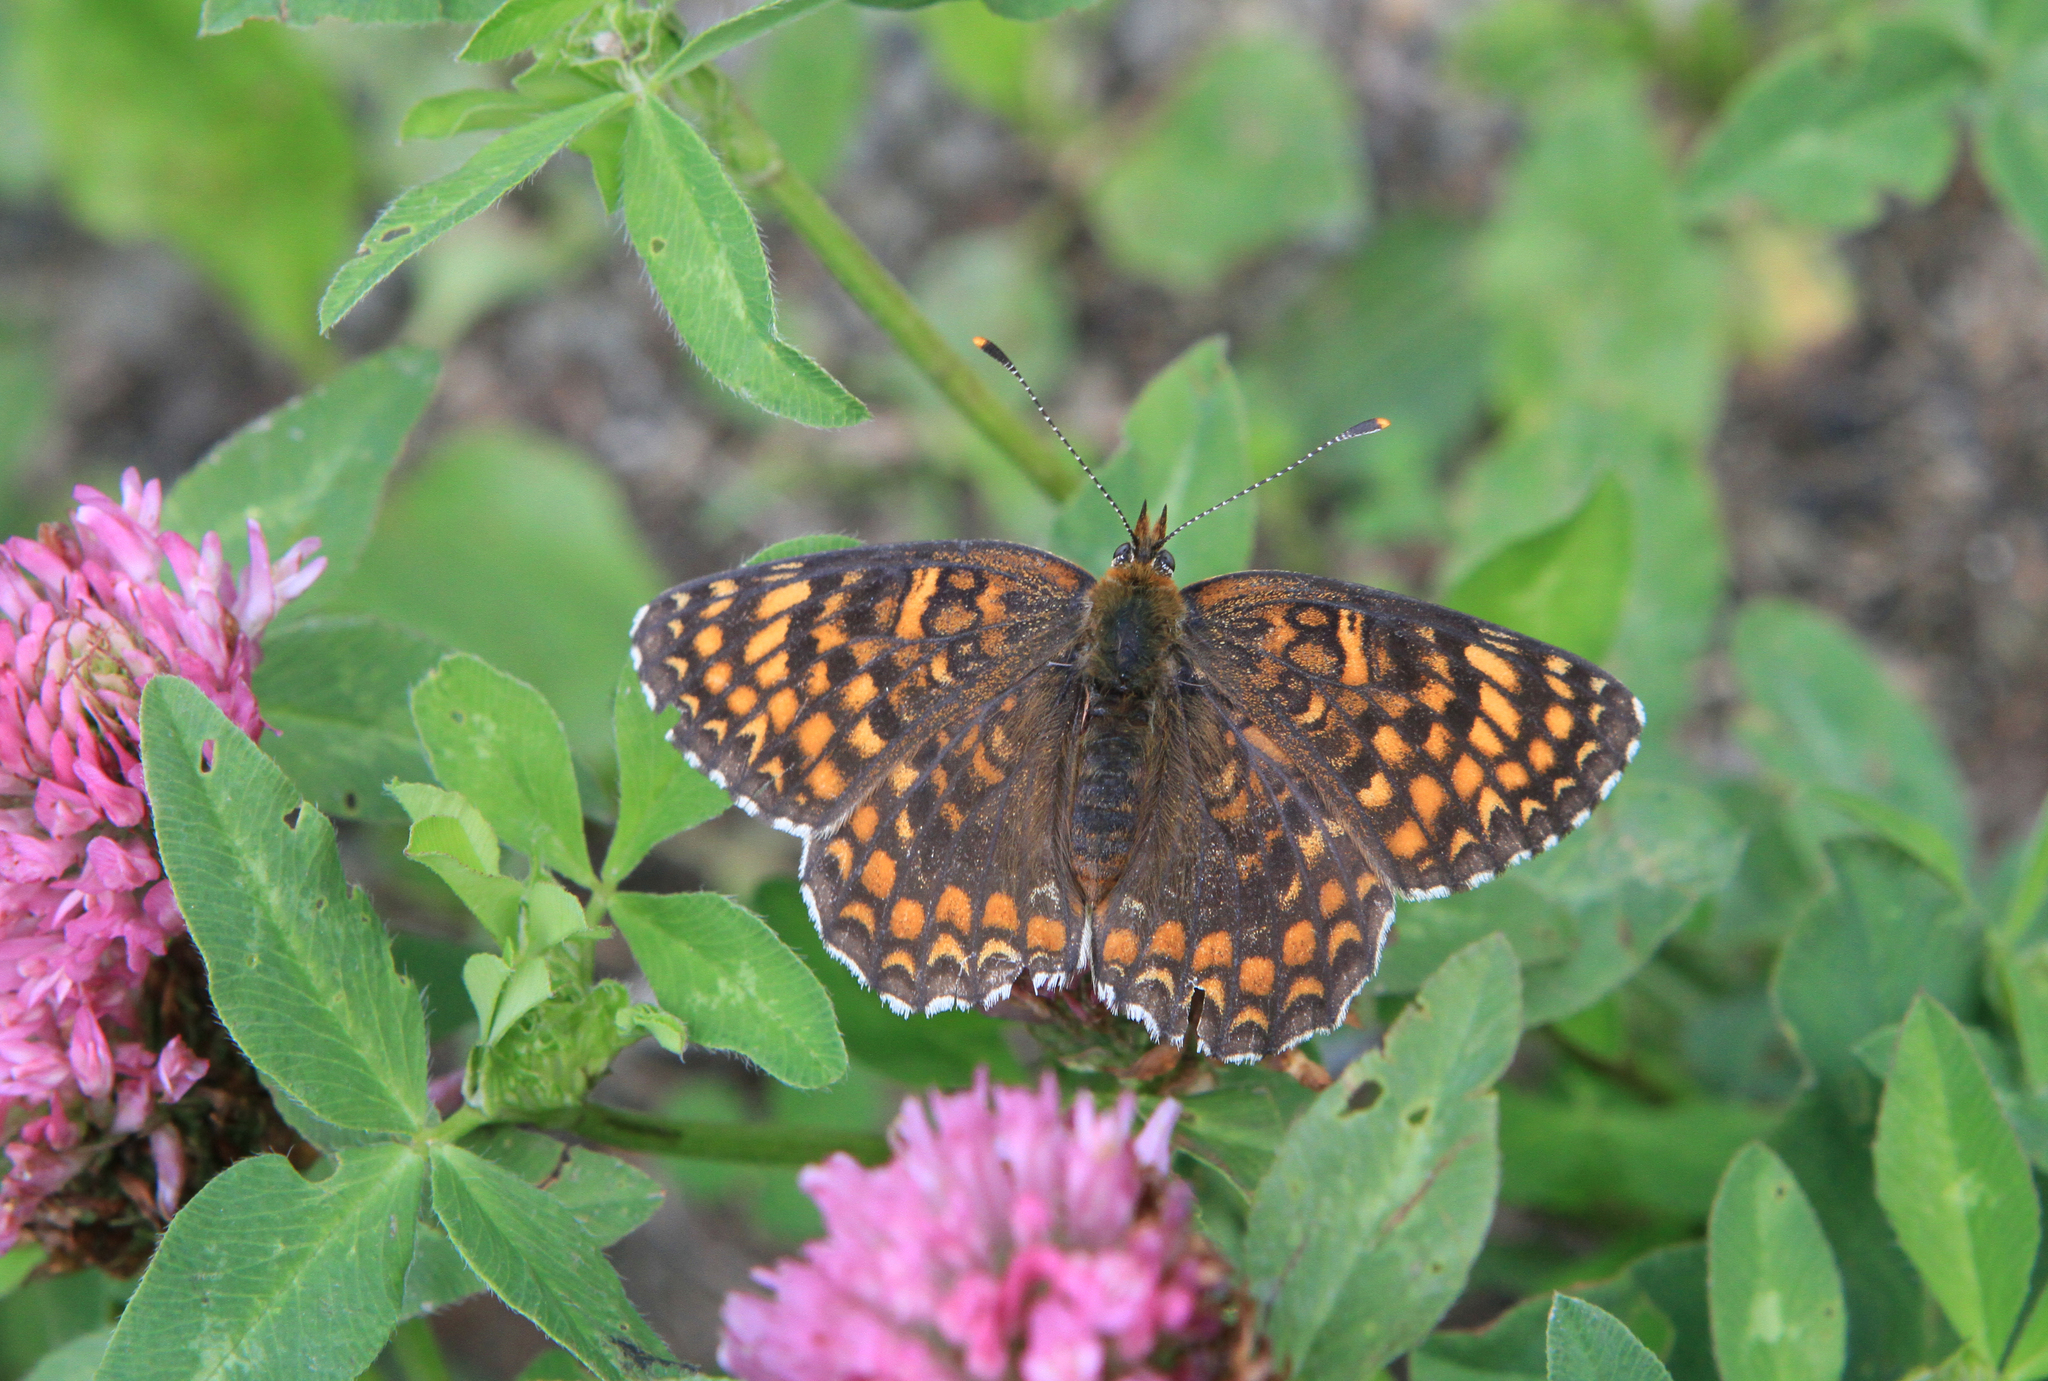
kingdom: Plantae
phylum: Tracheophyta
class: Magnoliopsida
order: Fabales
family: Fabaceae
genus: Trifolium
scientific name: Trifolium pratense
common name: Red clover
